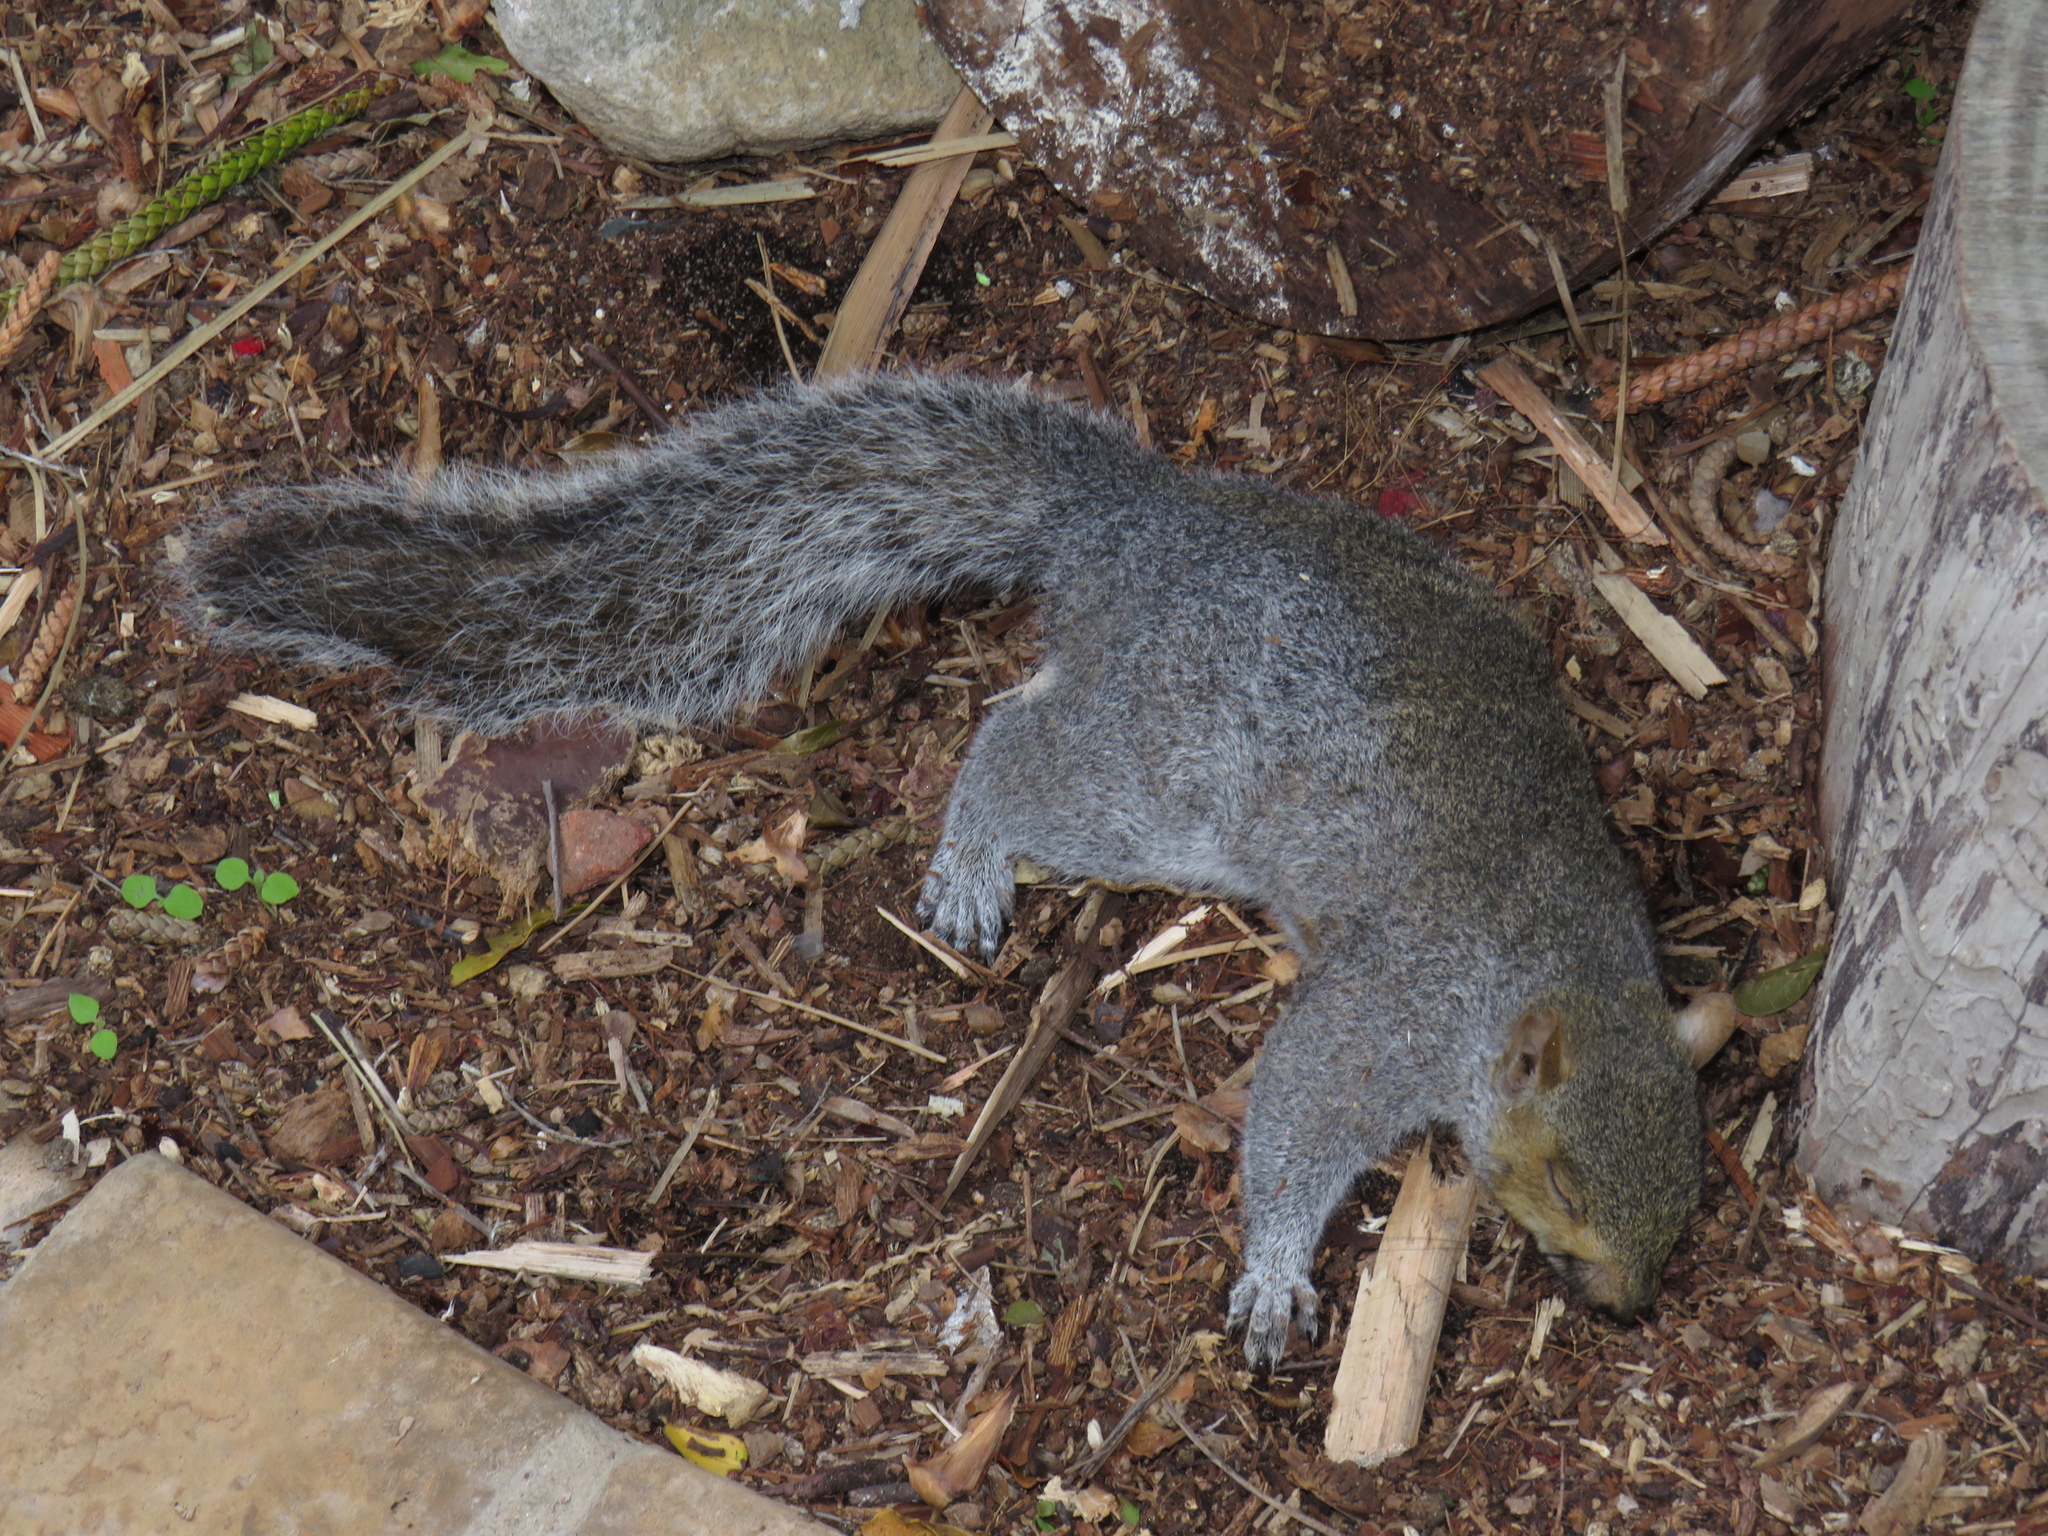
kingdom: Animalia
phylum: Chordata
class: Mammalia
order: Rodentia
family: Sciuridae
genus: Sciurus
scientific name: Sciurus carolinensis
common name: Eastern gray squirrel
